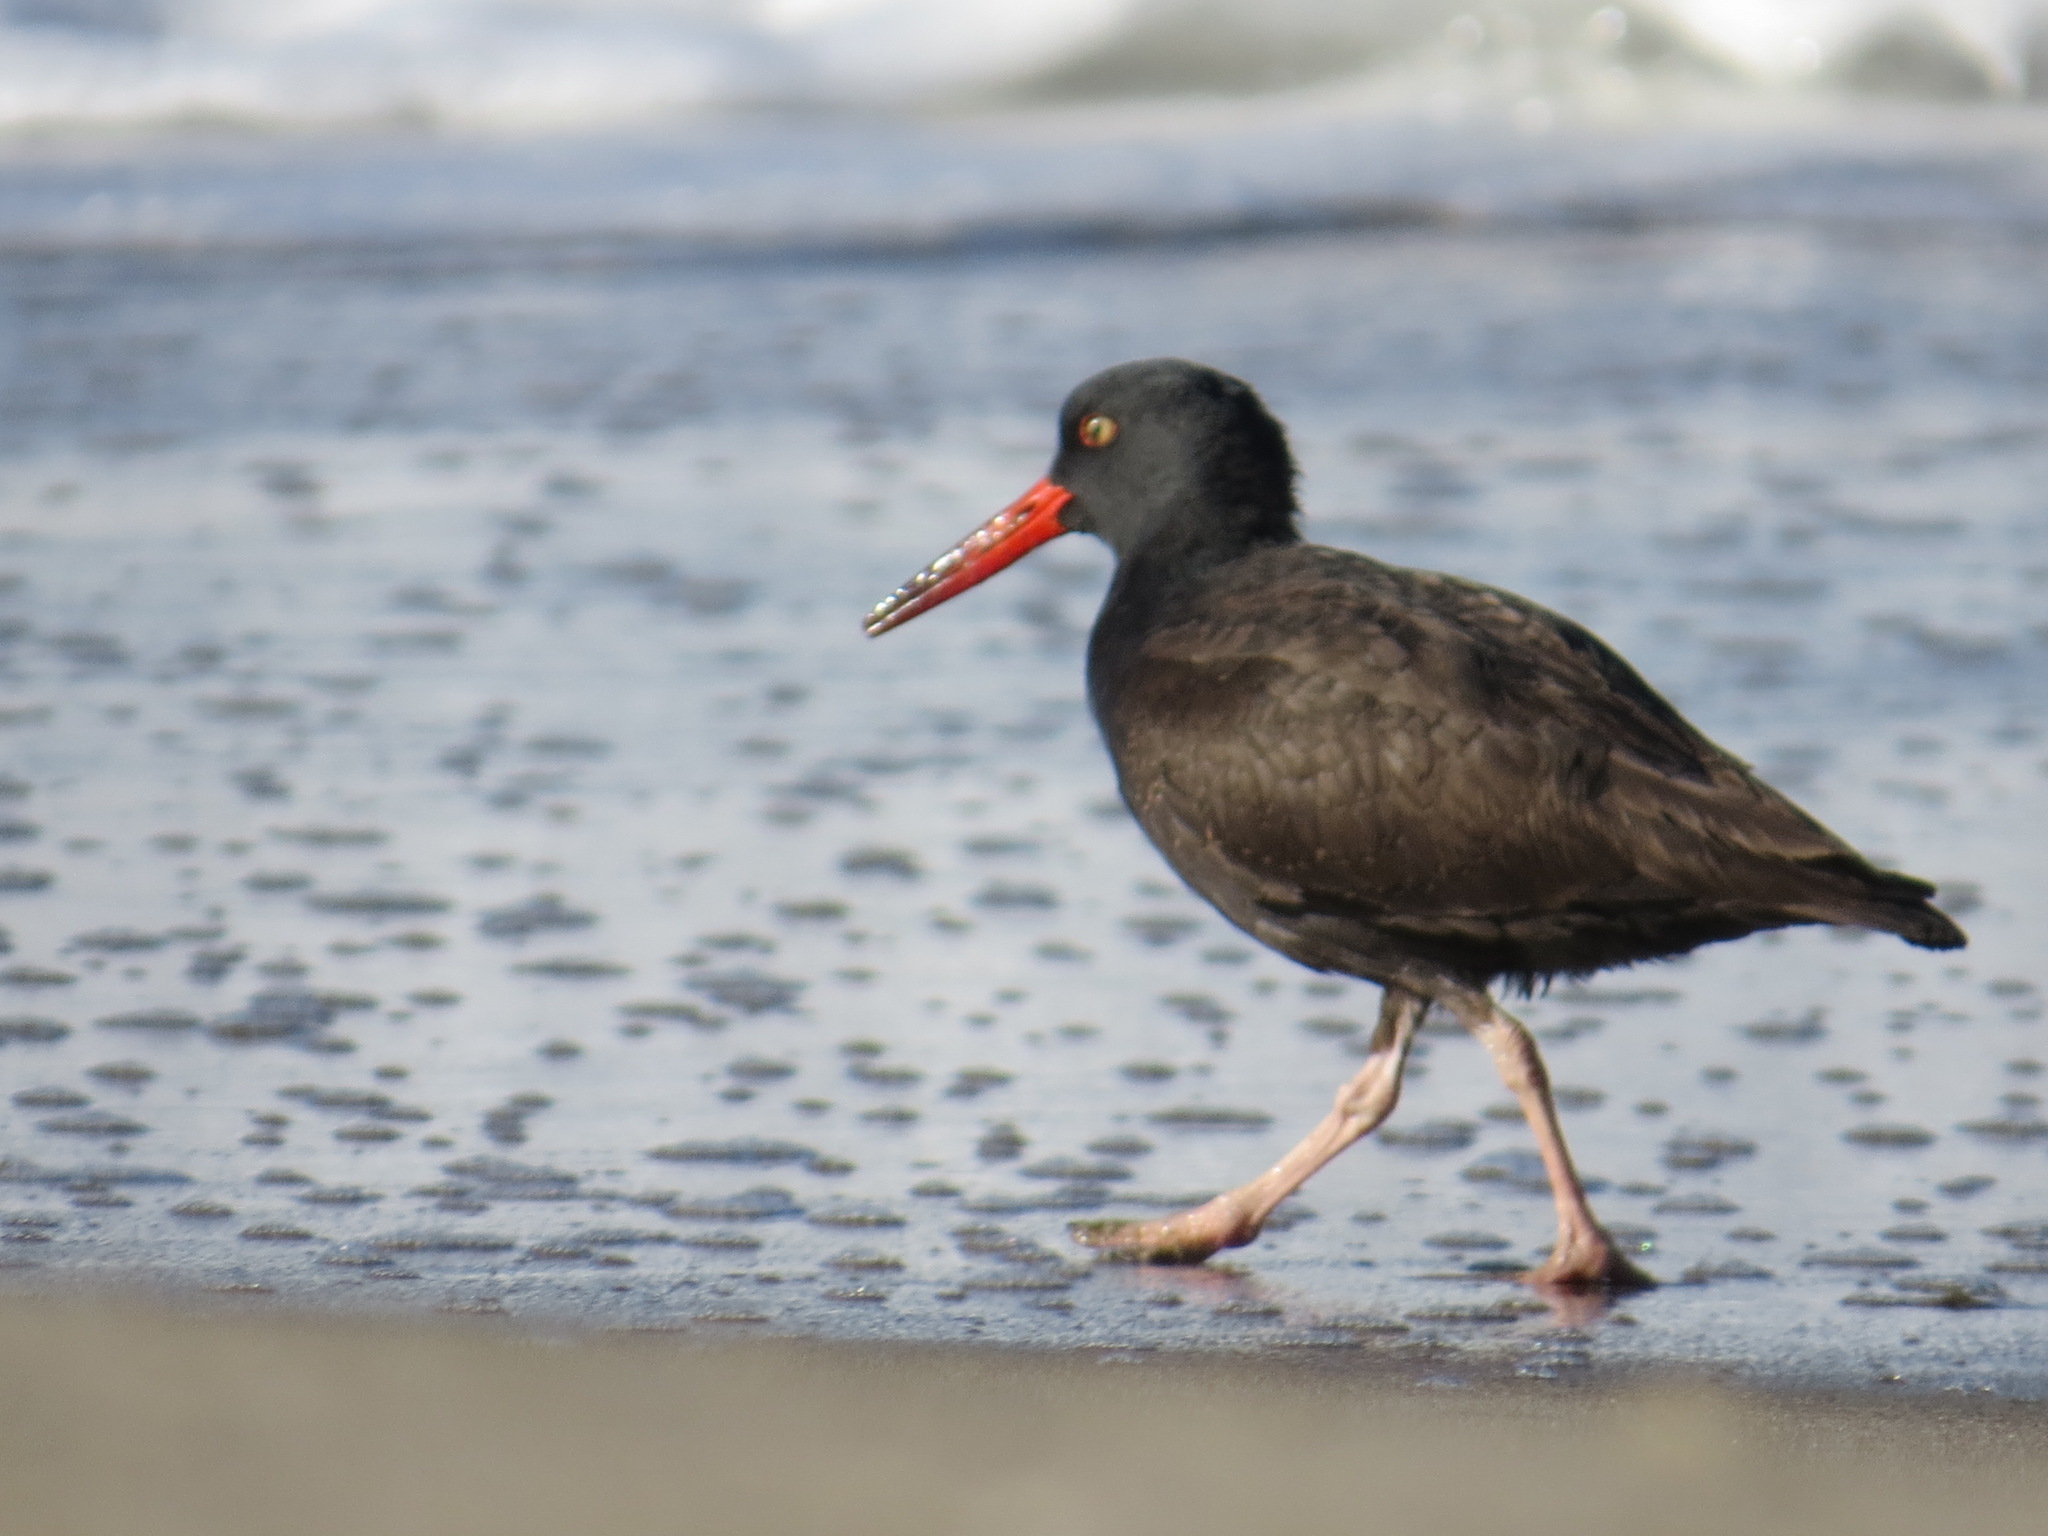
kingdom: Animalia
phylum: Chordata
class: Aves
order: Charadriiformes
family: Haematopodidae
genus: Haematopus
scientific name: Haematopus bachmani
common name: Black oystercatcher
